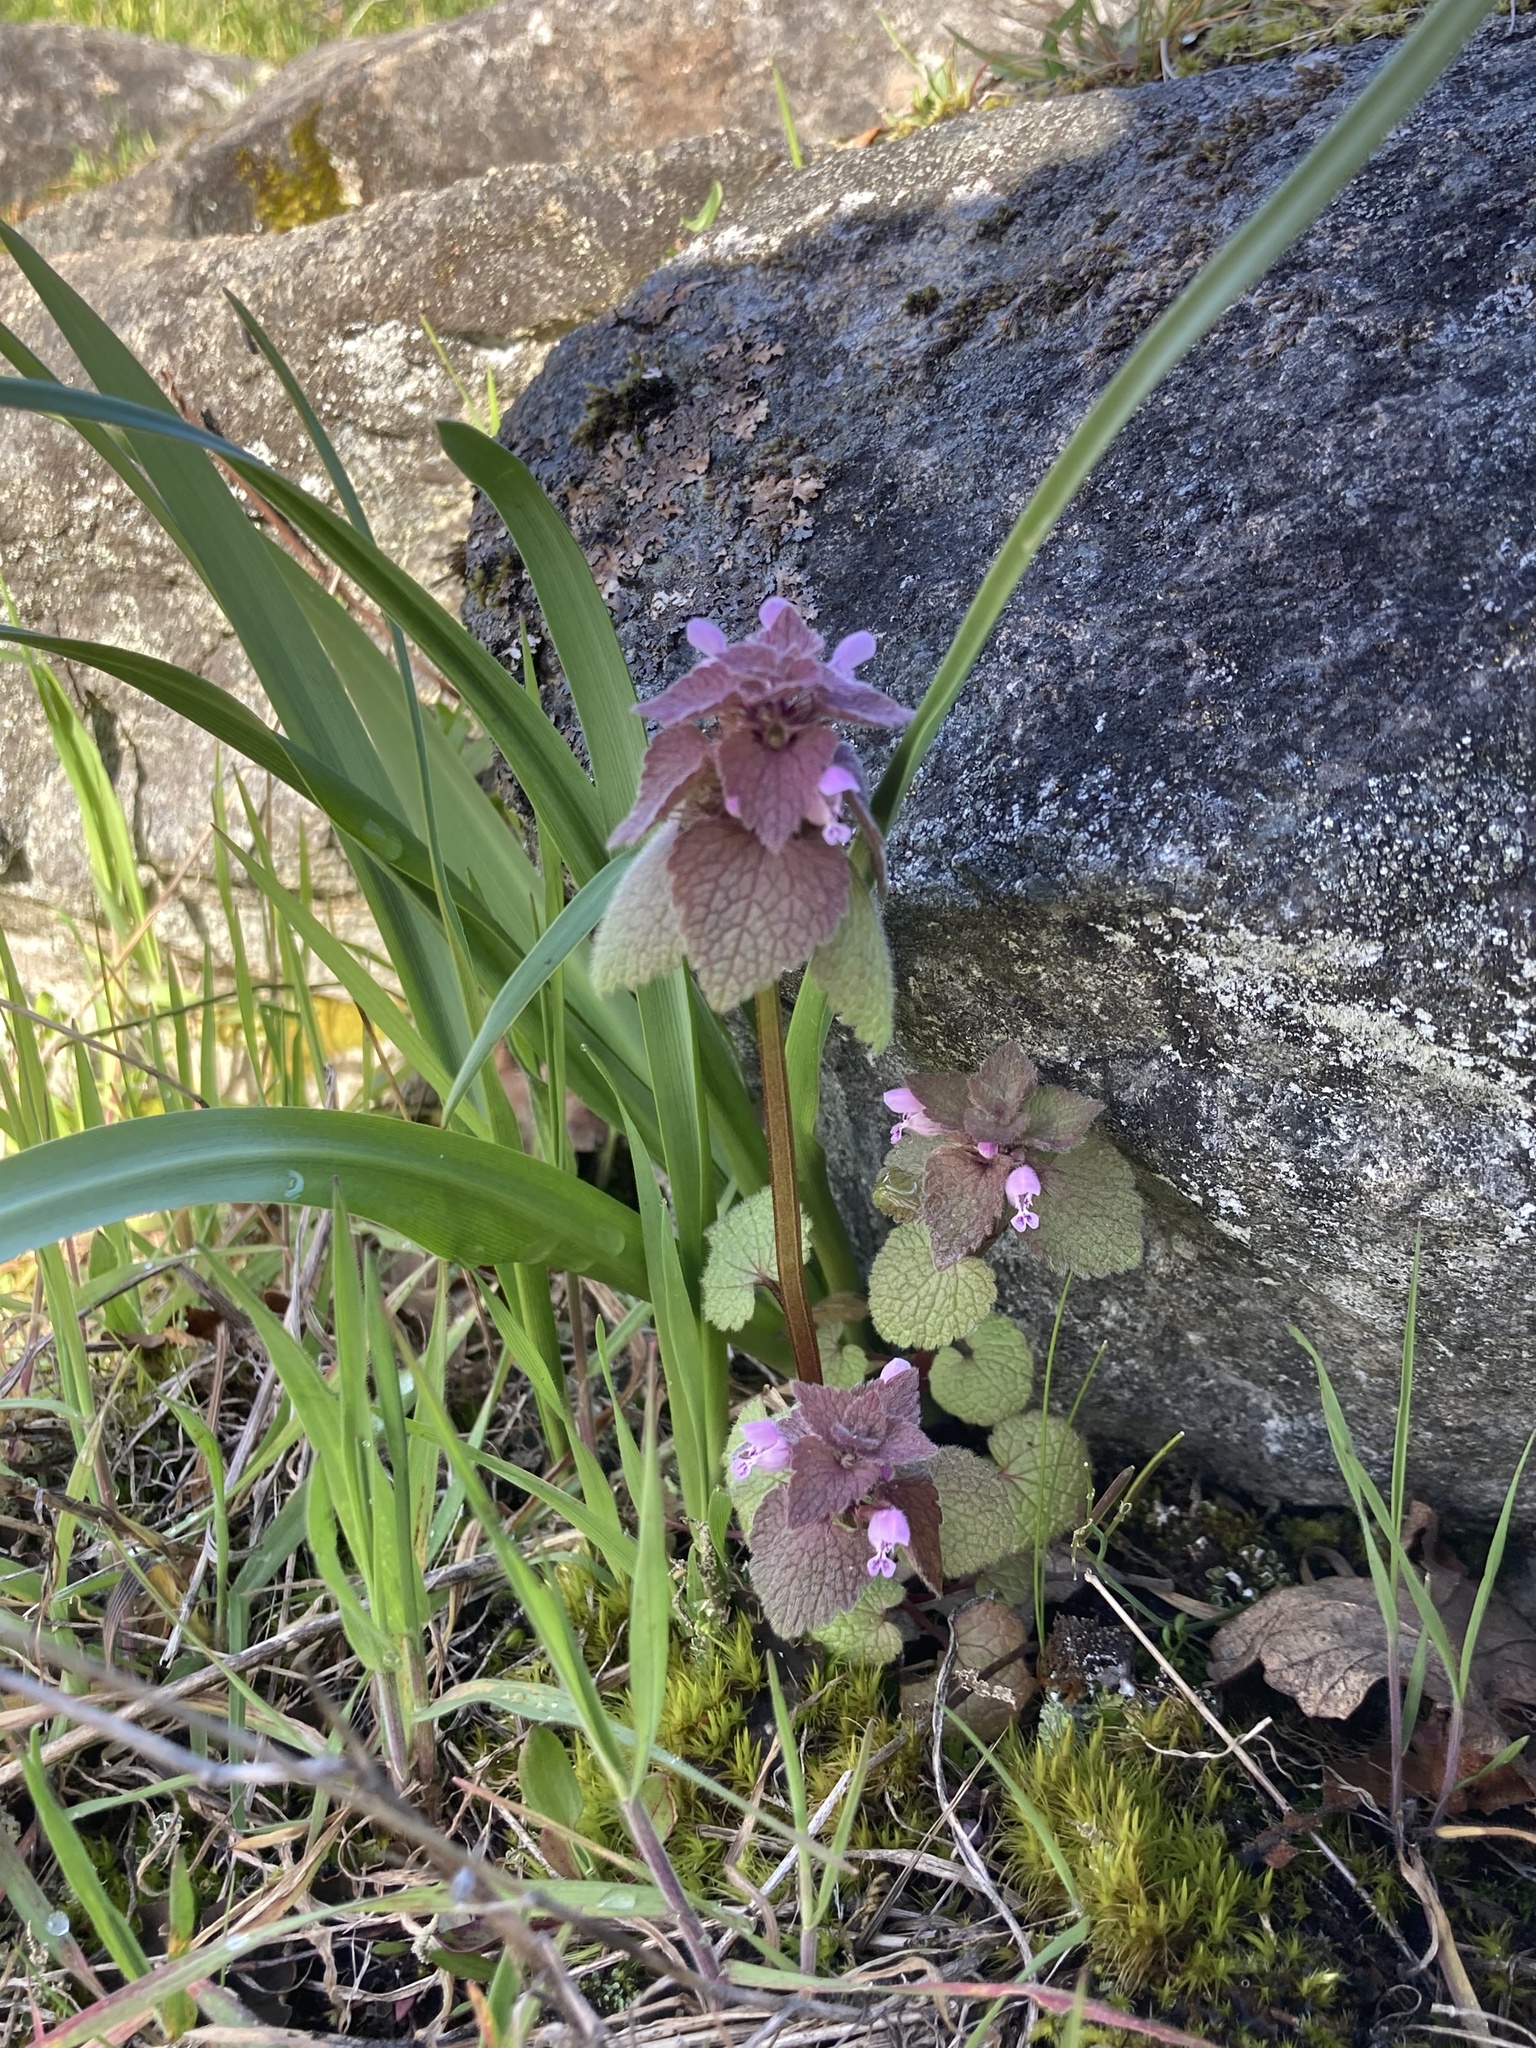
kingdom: Plantae
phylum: Tracheophyta
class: Magnoliopsida
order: Lamiales
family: Lamiaceae
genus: Lamium
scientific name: Lamium purpureum
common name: Red dead-nettle
